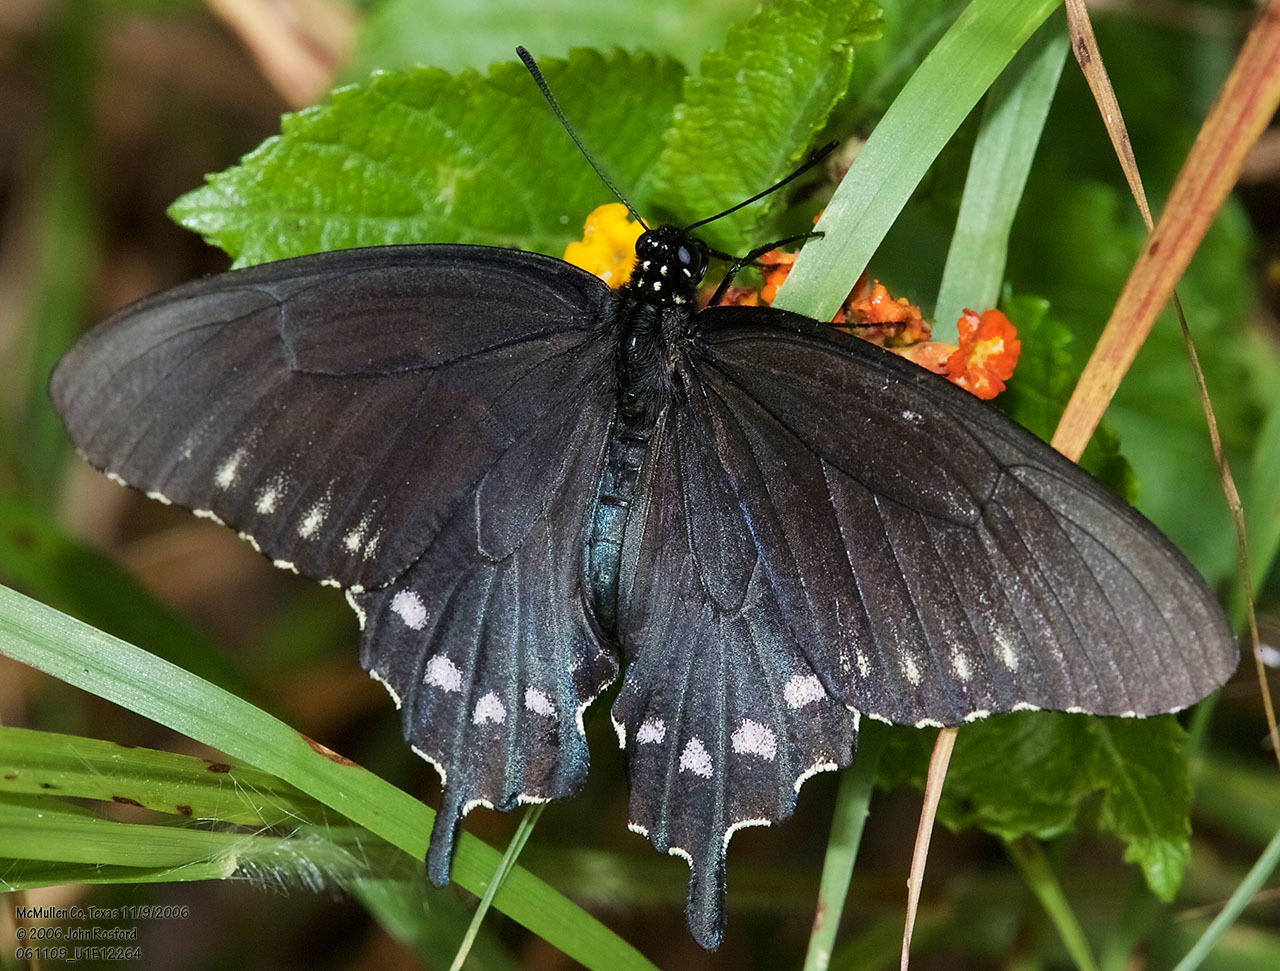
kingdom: Animalia
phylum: Arthropoda
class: Insecta
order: Lepidoptera
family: Papilionidae
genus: Battus
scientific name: Battus philenor
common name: Pipevine swallowtail
